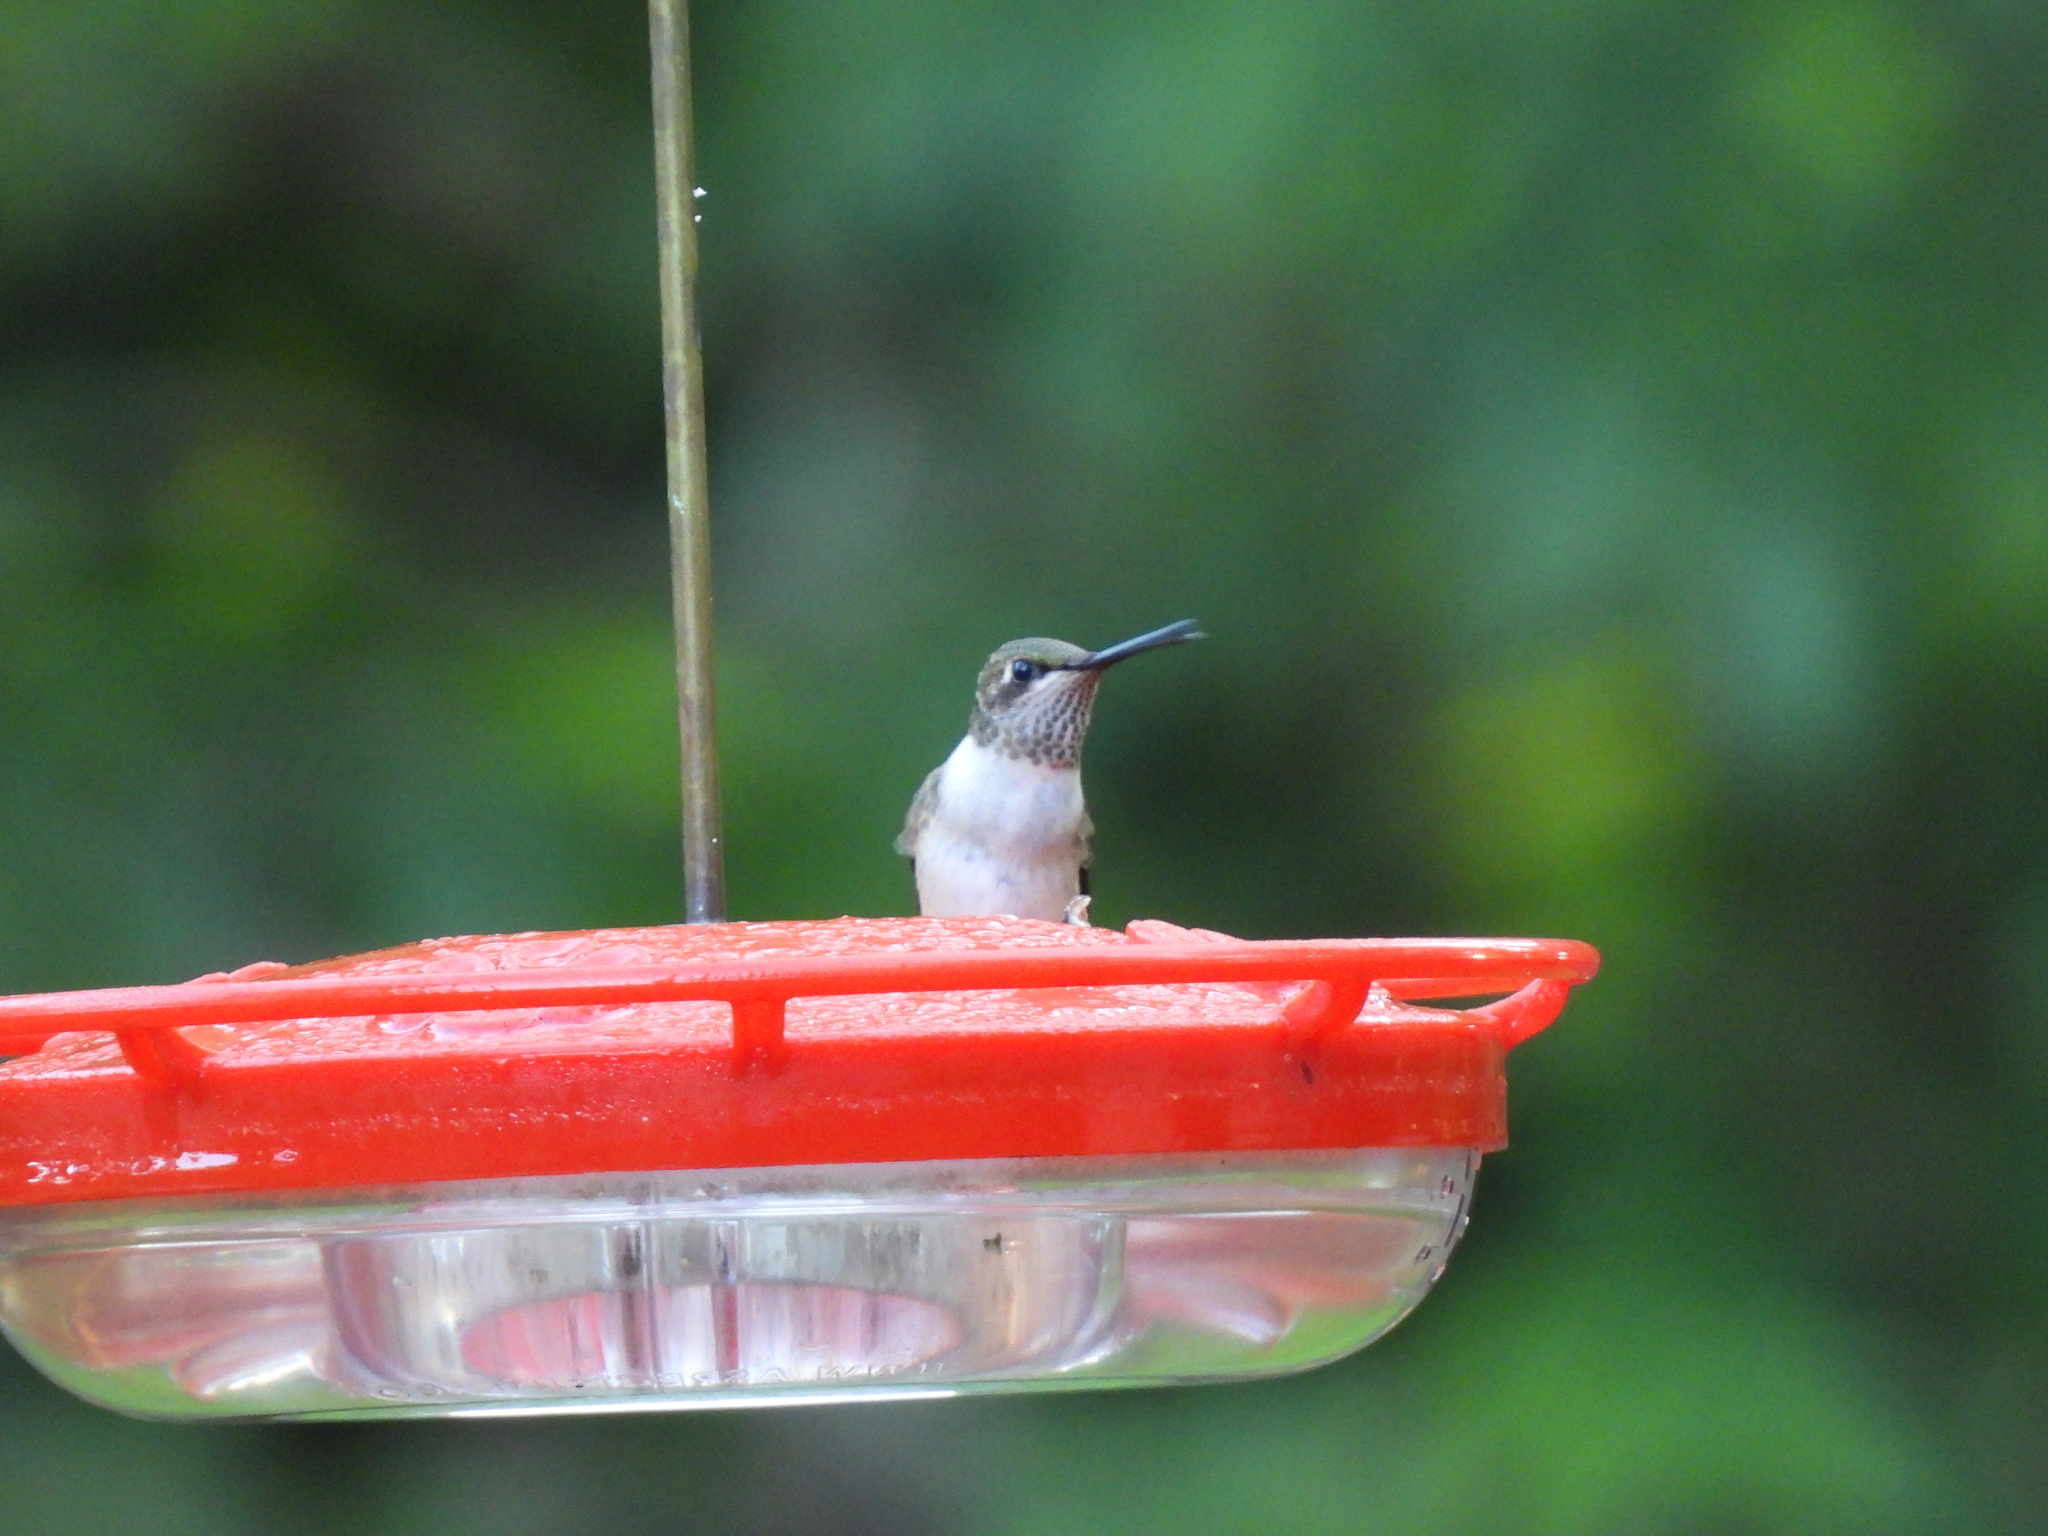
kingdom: Animalia
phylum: Chordata
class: Aves
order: Apodiformes
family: Trochilidae
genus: Archilochus
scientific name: Archilochus colubris
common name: Ruby-throated hummingbird
